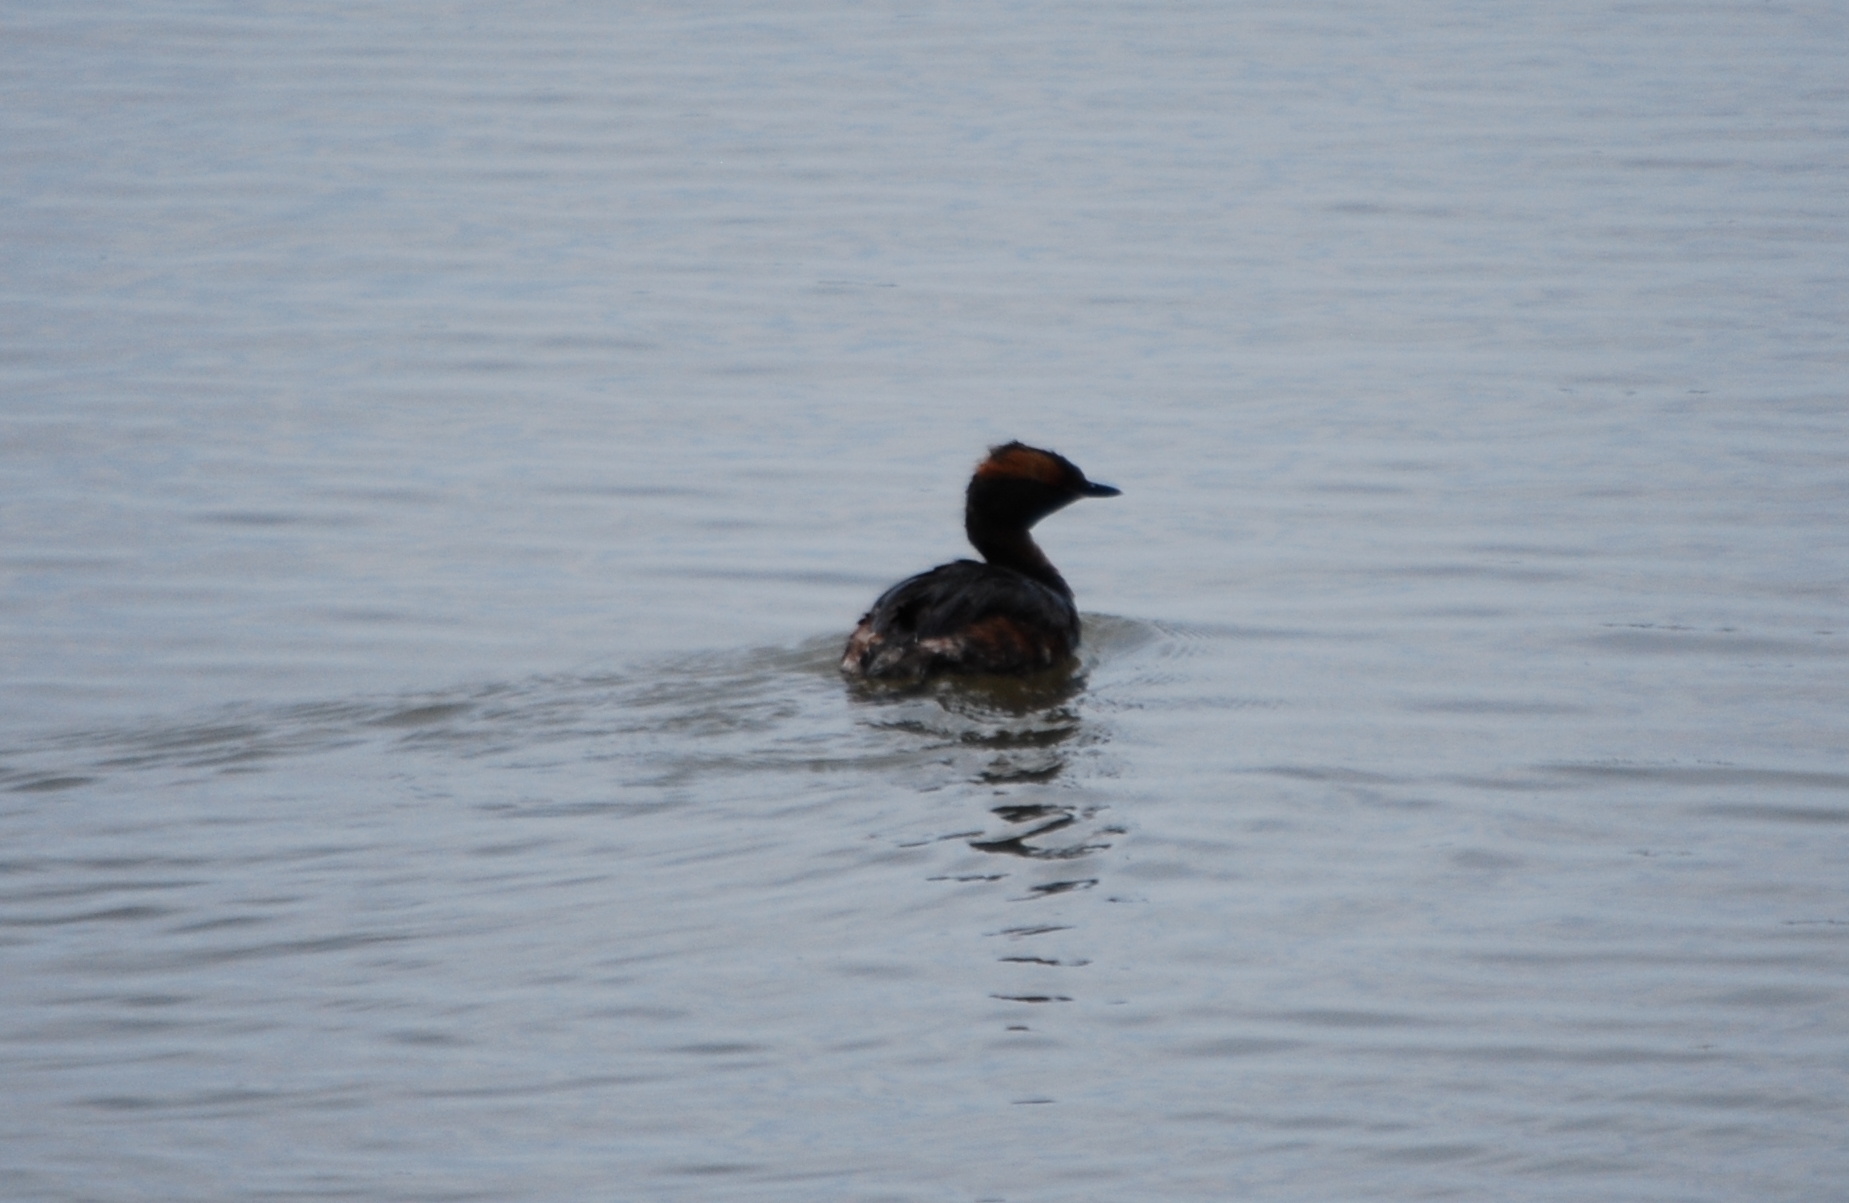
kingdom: Animalia
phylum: Chordata
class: Aves
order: Podicipediformes
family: Podicipedidae
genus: Podiceps
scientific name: Podiceps auritus
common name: Horned grebe
